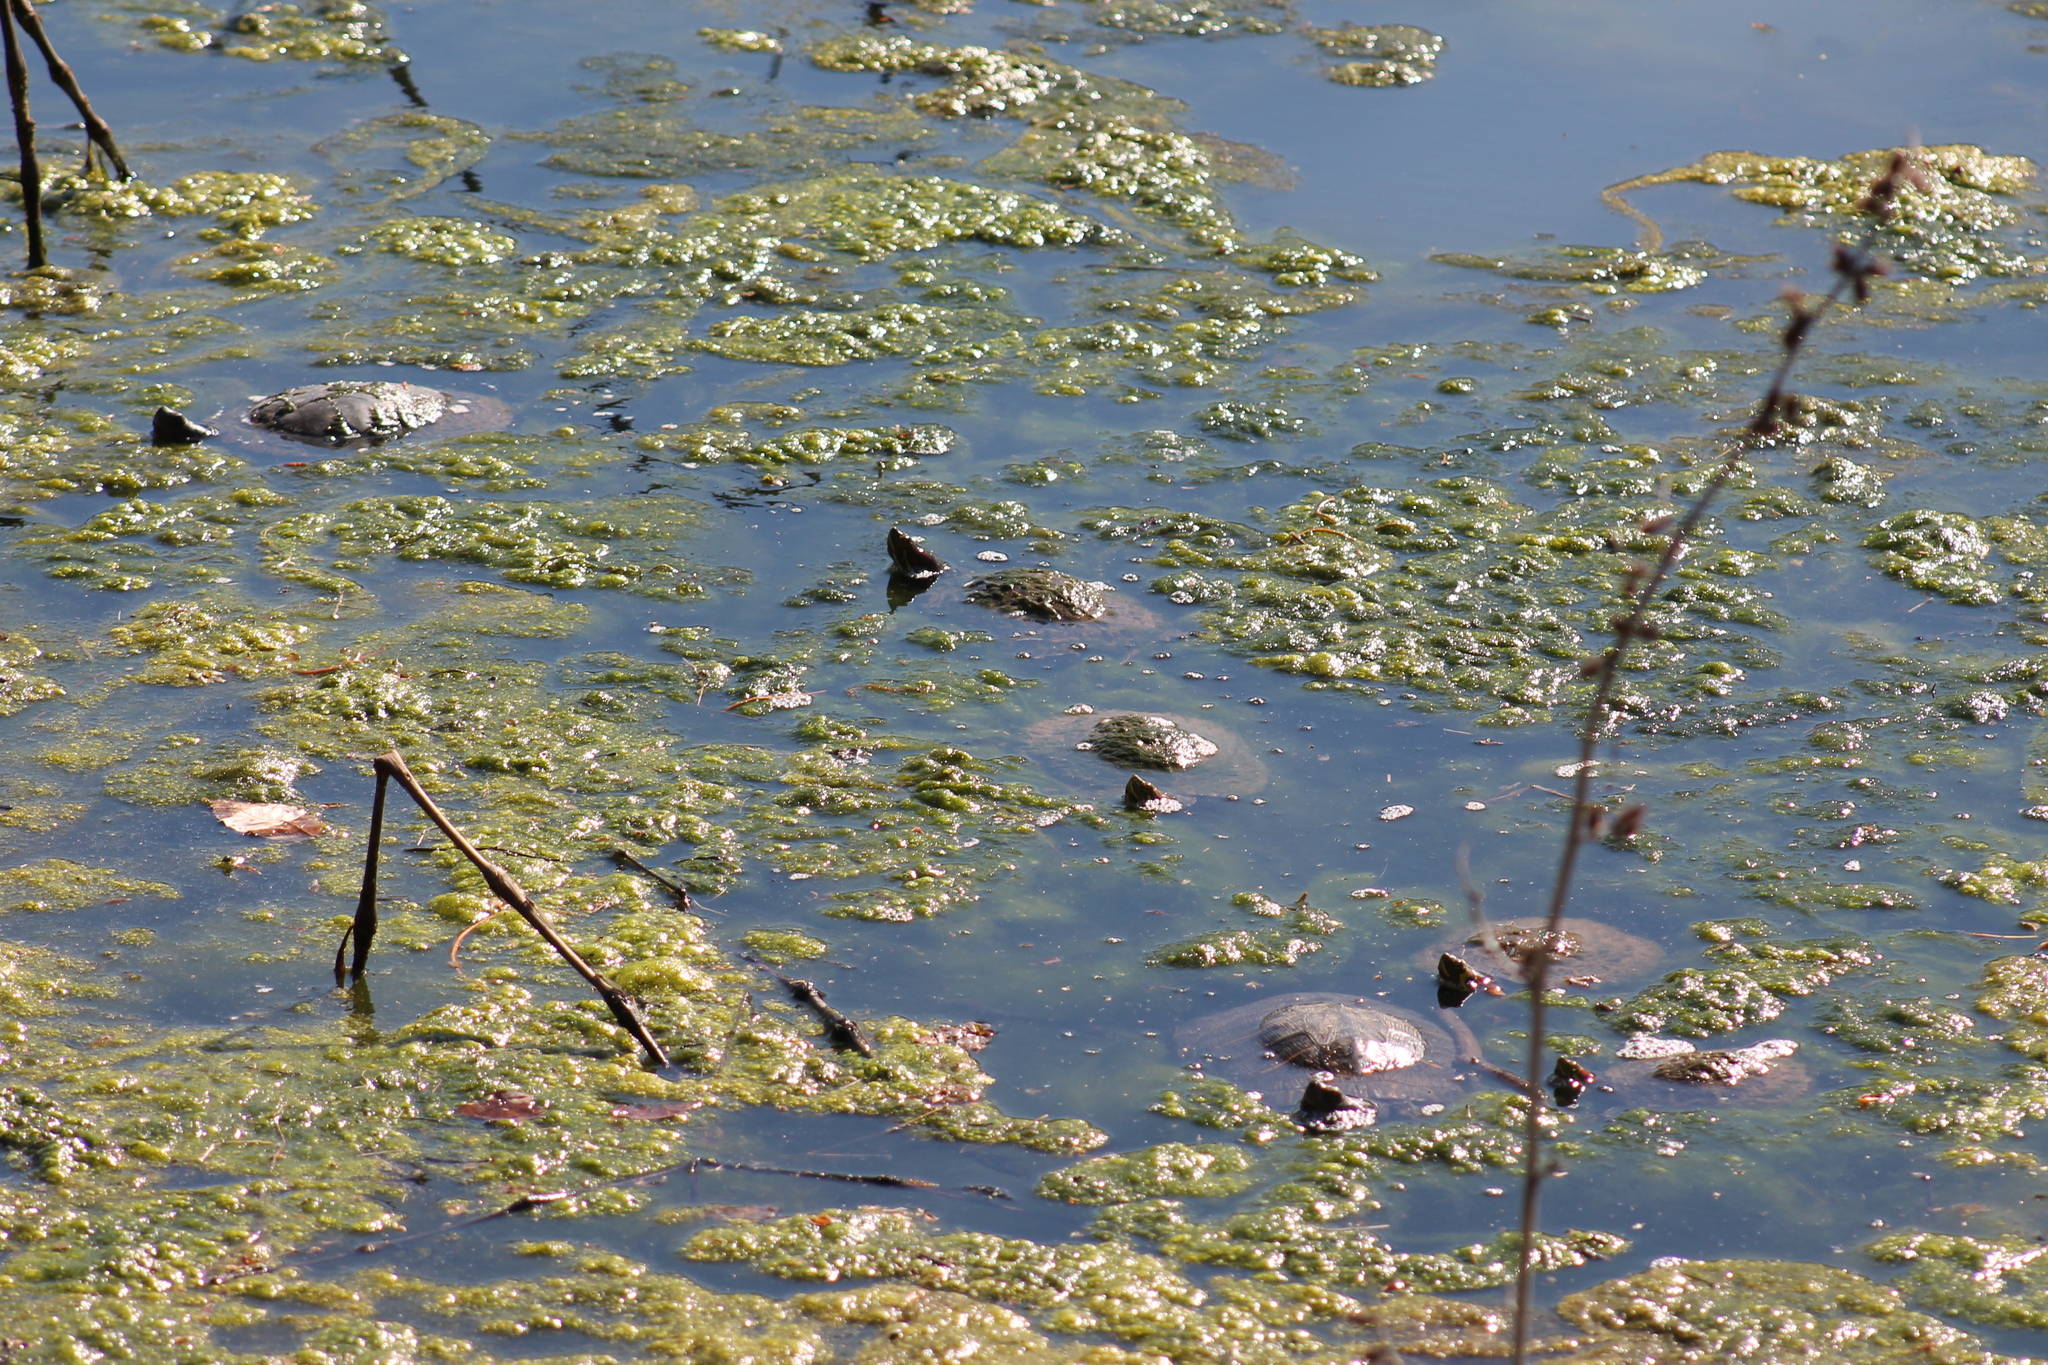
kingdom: Animalia
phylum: Chordata
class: Testudines
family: Emydidae
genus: Trachemys
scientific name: Trachemys scripta
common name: Slider
